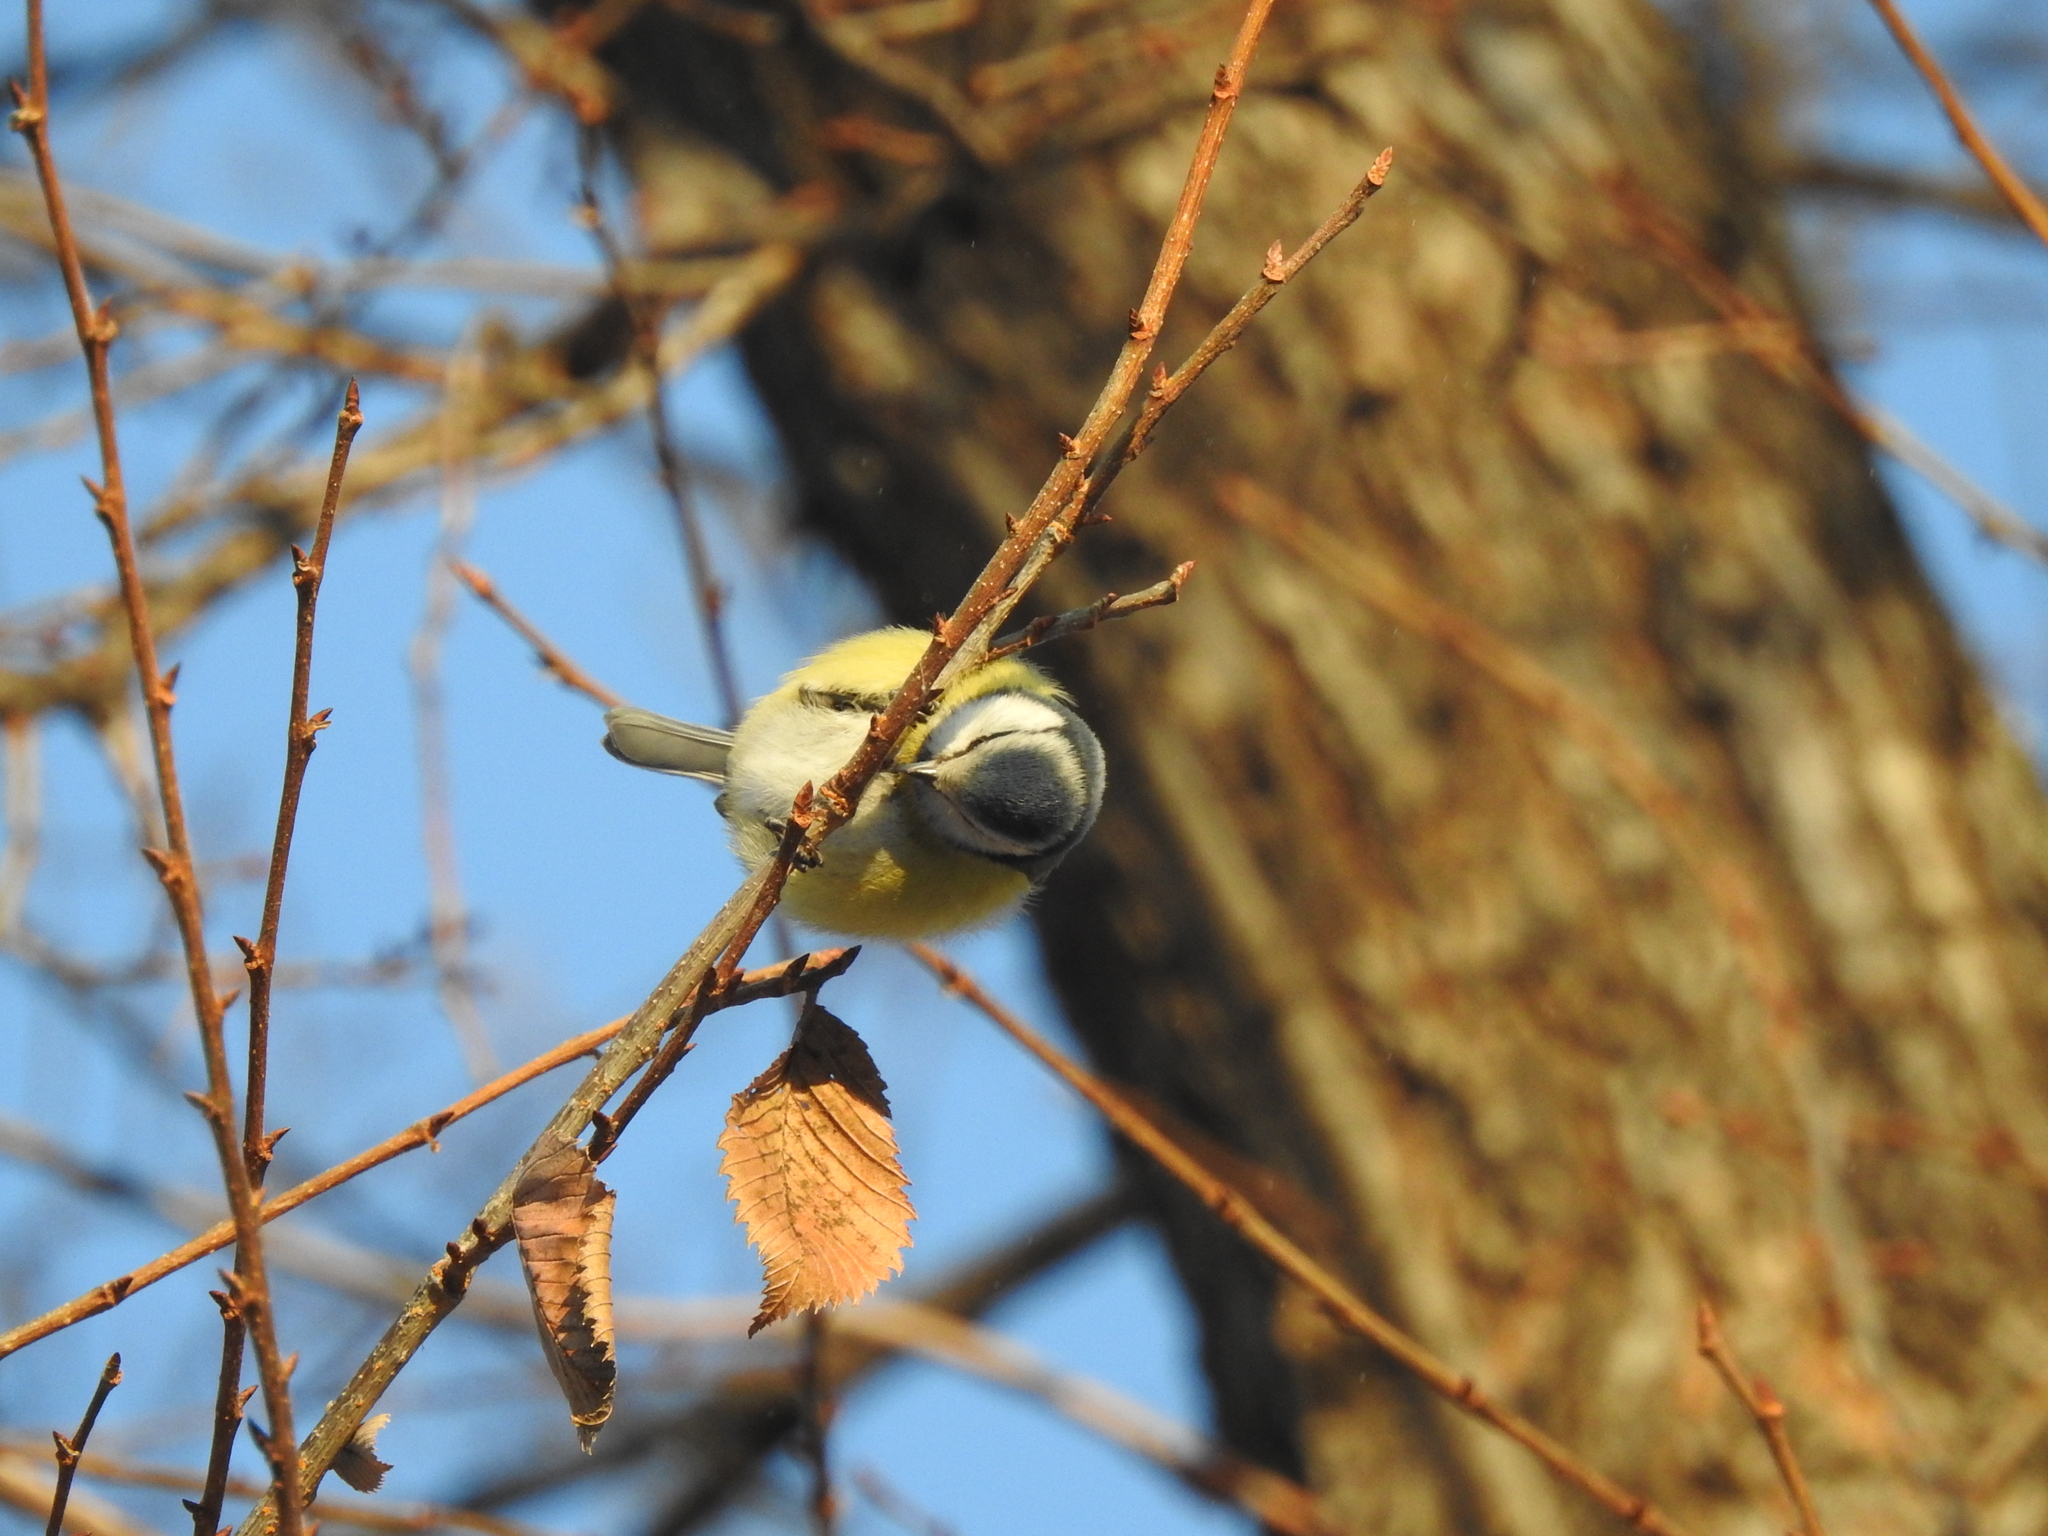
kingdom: Animalia
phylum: Chordata
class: Aves
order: Passeriformes
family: Paridae
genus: Cyanistes
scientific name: Cyanistes caeruleus
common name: Eurasian blue tit
